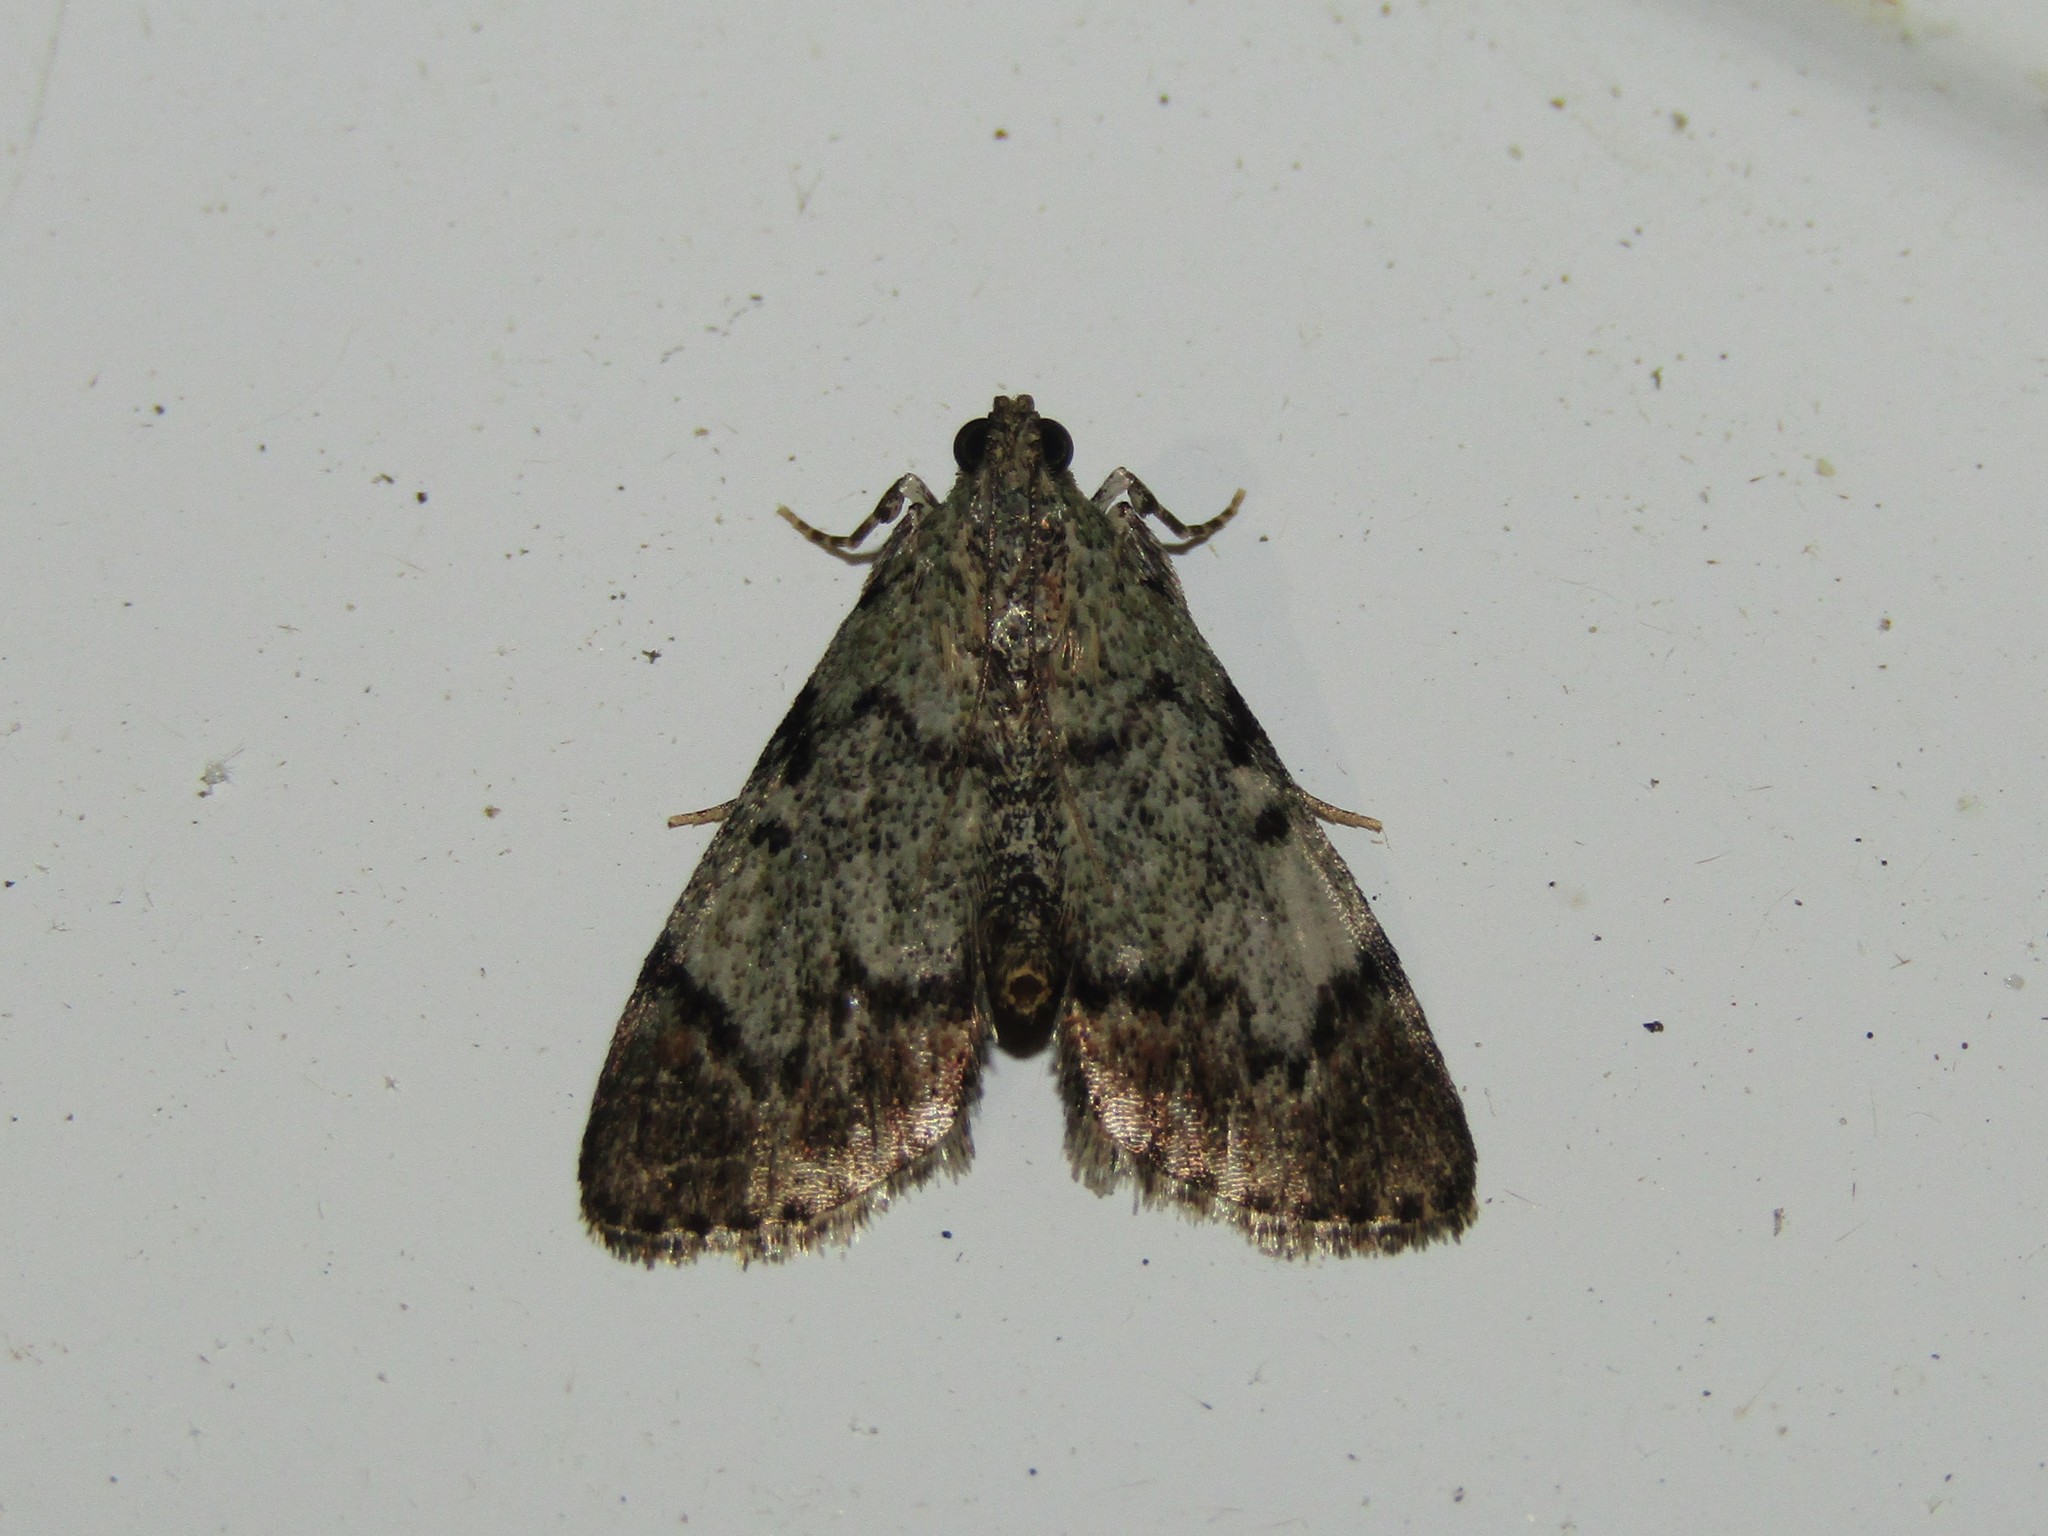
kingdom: Animalia
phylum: Arthropoda
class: Insecta
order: Lepidoptera
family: Pyralidae
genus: Epipaschia
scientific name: Epipaschia superatalis
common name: Dimorphic macalla moth
